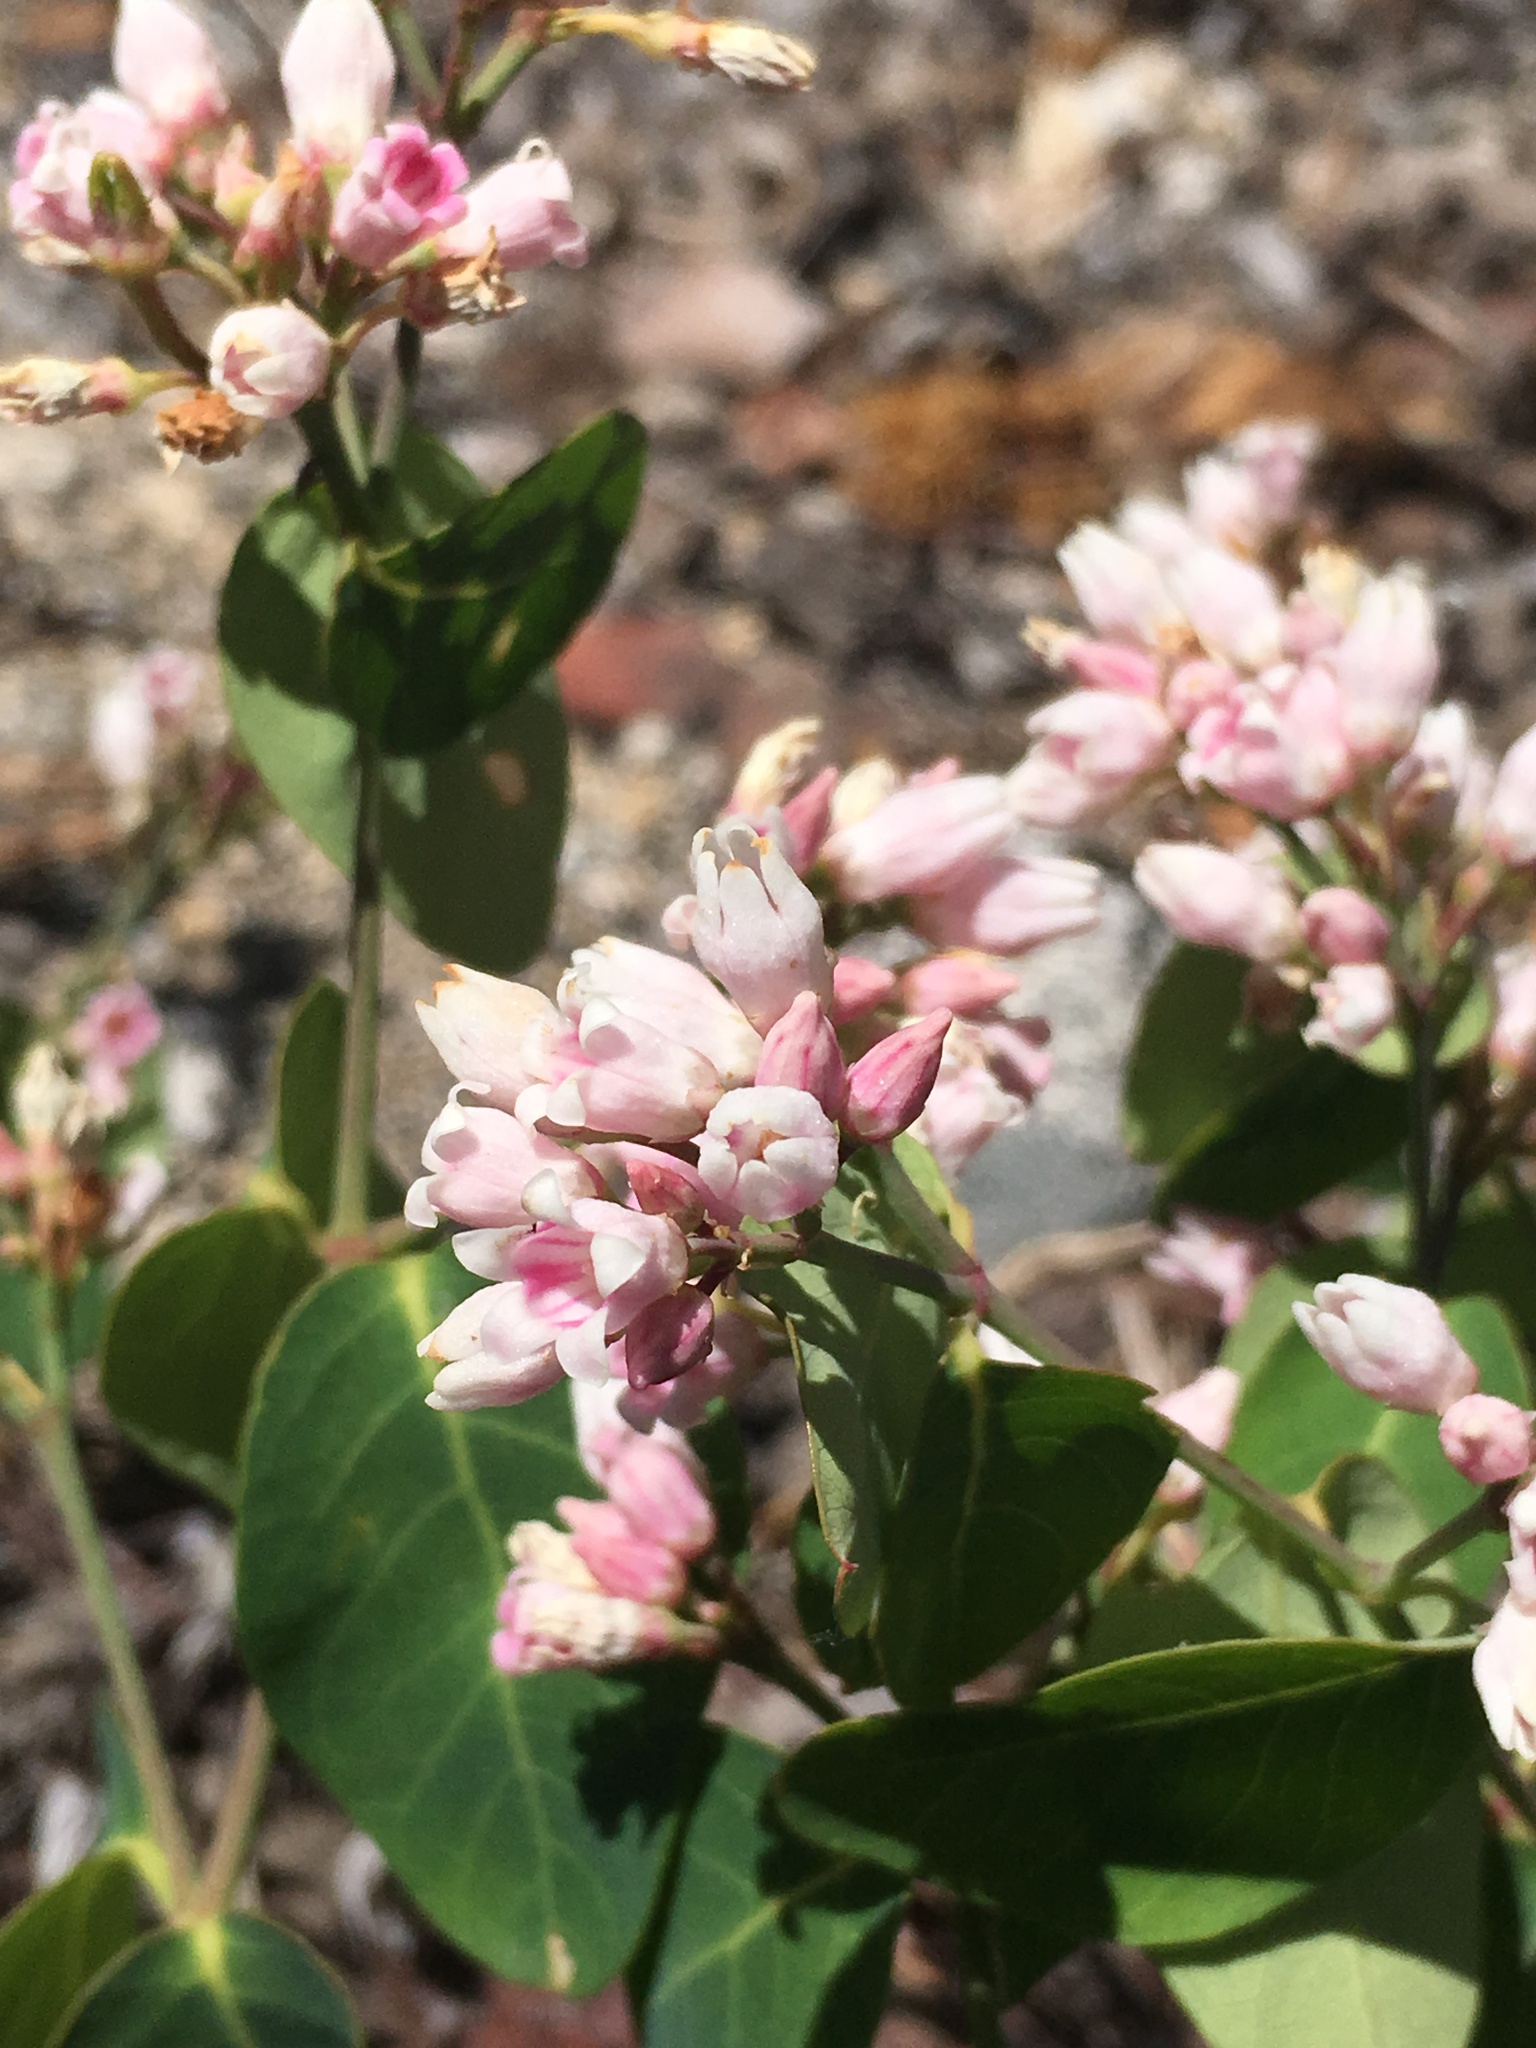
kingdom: Plantae
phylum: Tracheophyta
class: Magnoliopsida
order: Gentianales
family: Apocynaceae
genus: Apocynum
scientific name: Apocynum androsaemifolium
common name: Spreading dogbane
